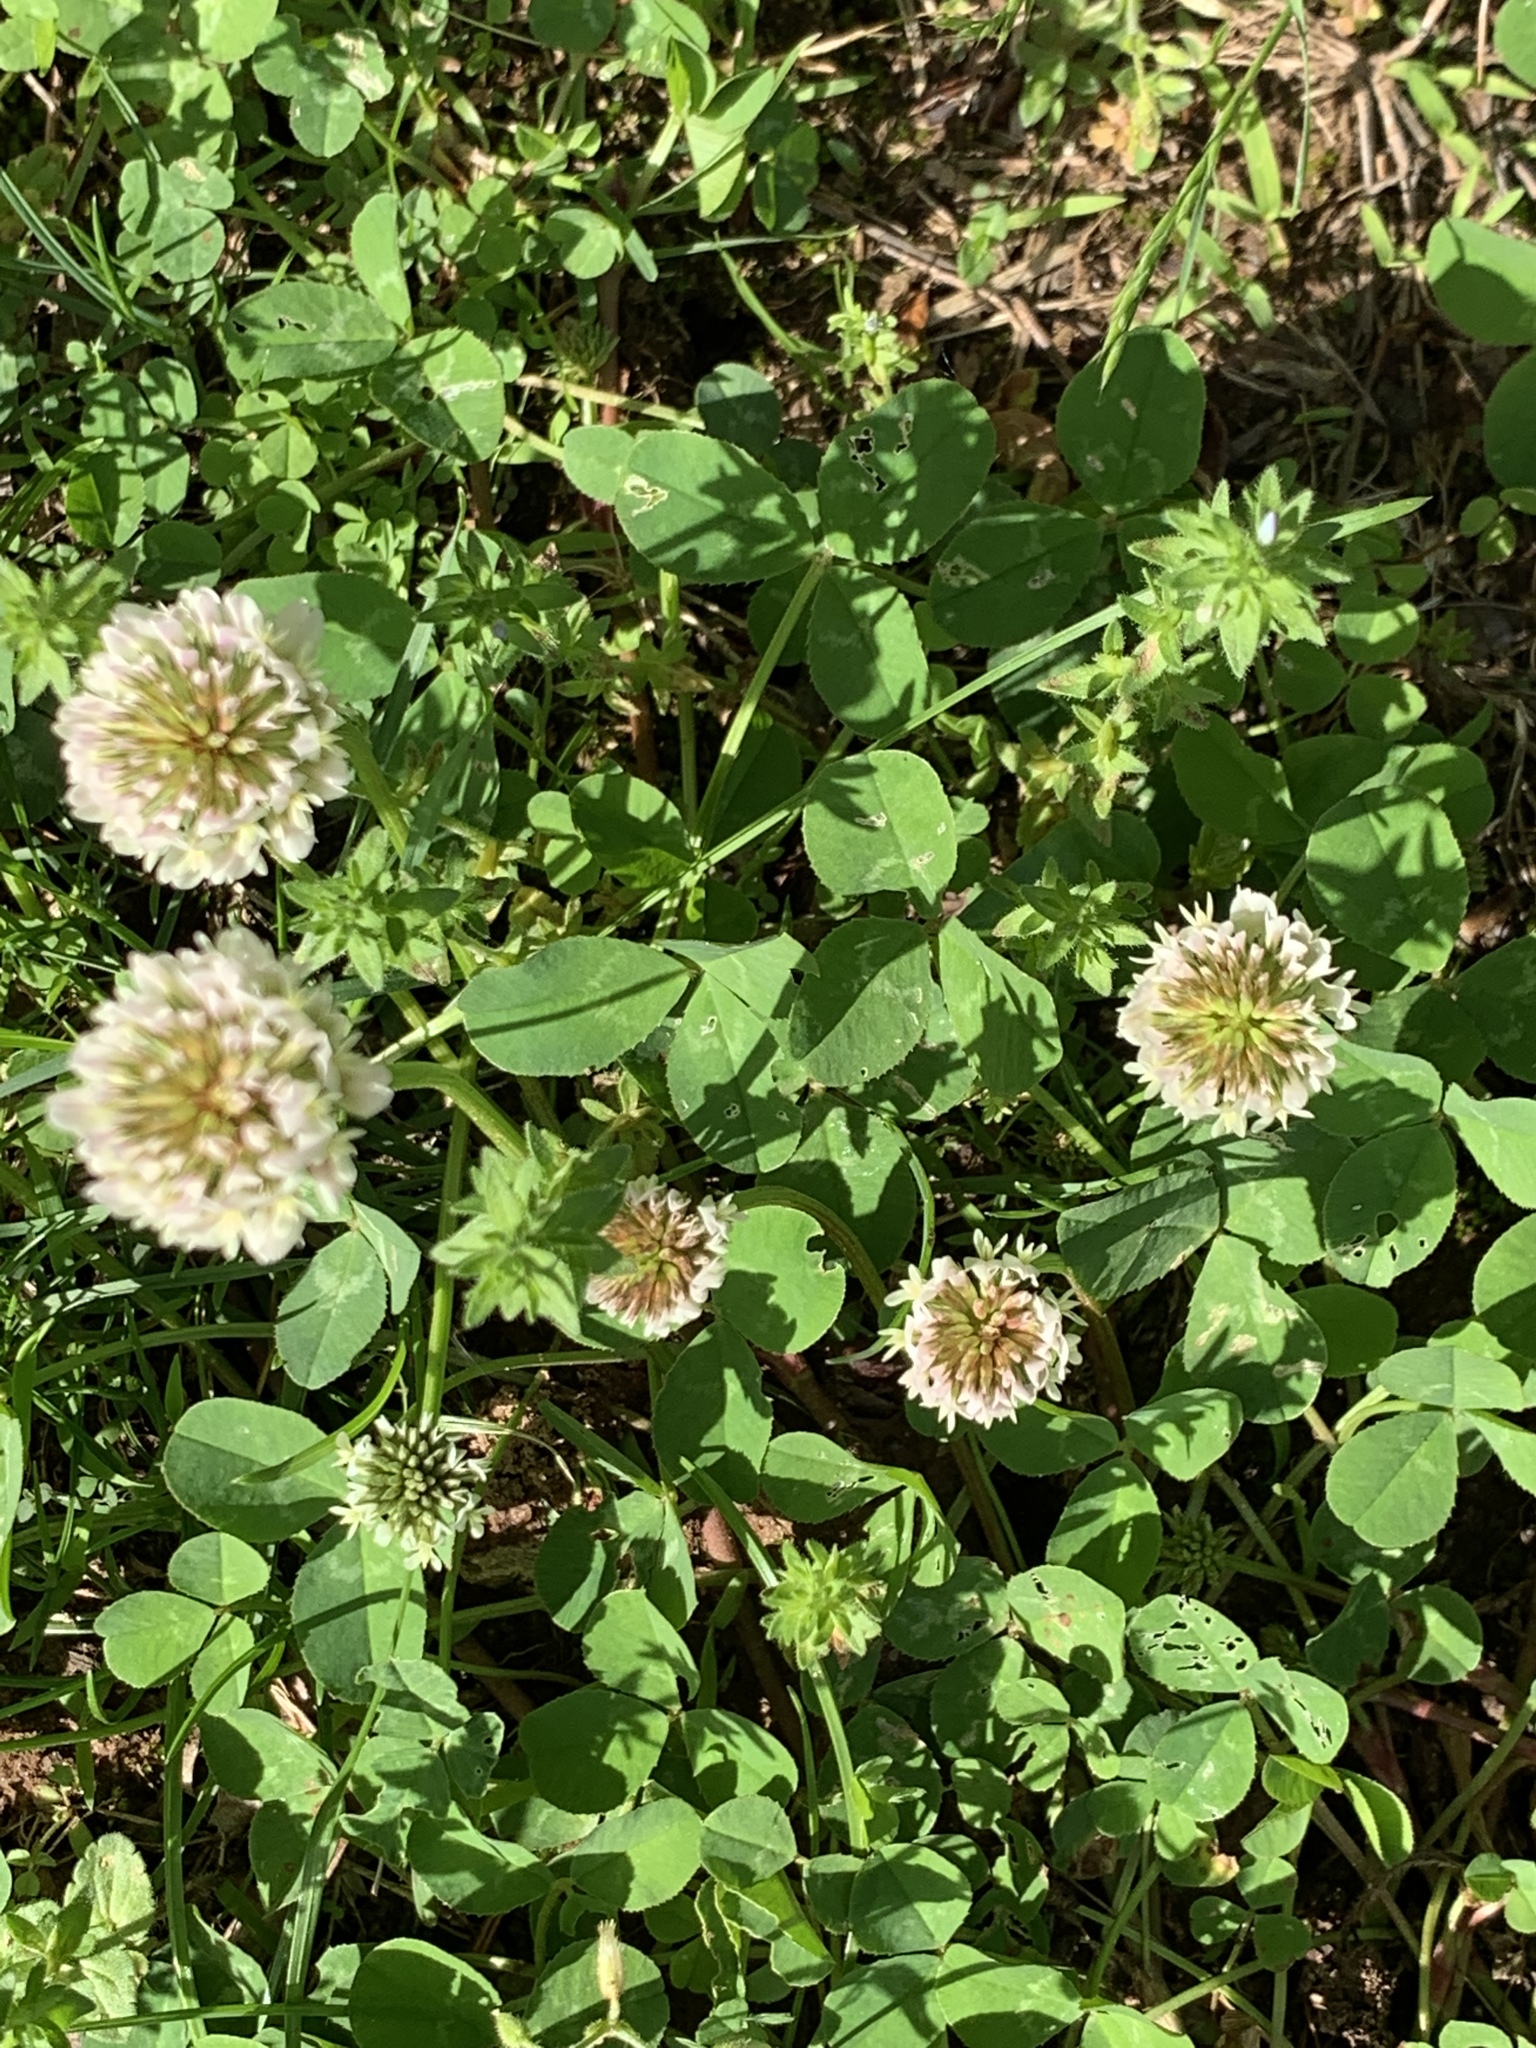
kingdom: Plantae
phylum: Tracheophyta
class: Magnoliopsida
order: Fabales
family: Fabaceae
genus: Trifolium
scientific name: Trifolium repens
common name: White clover
